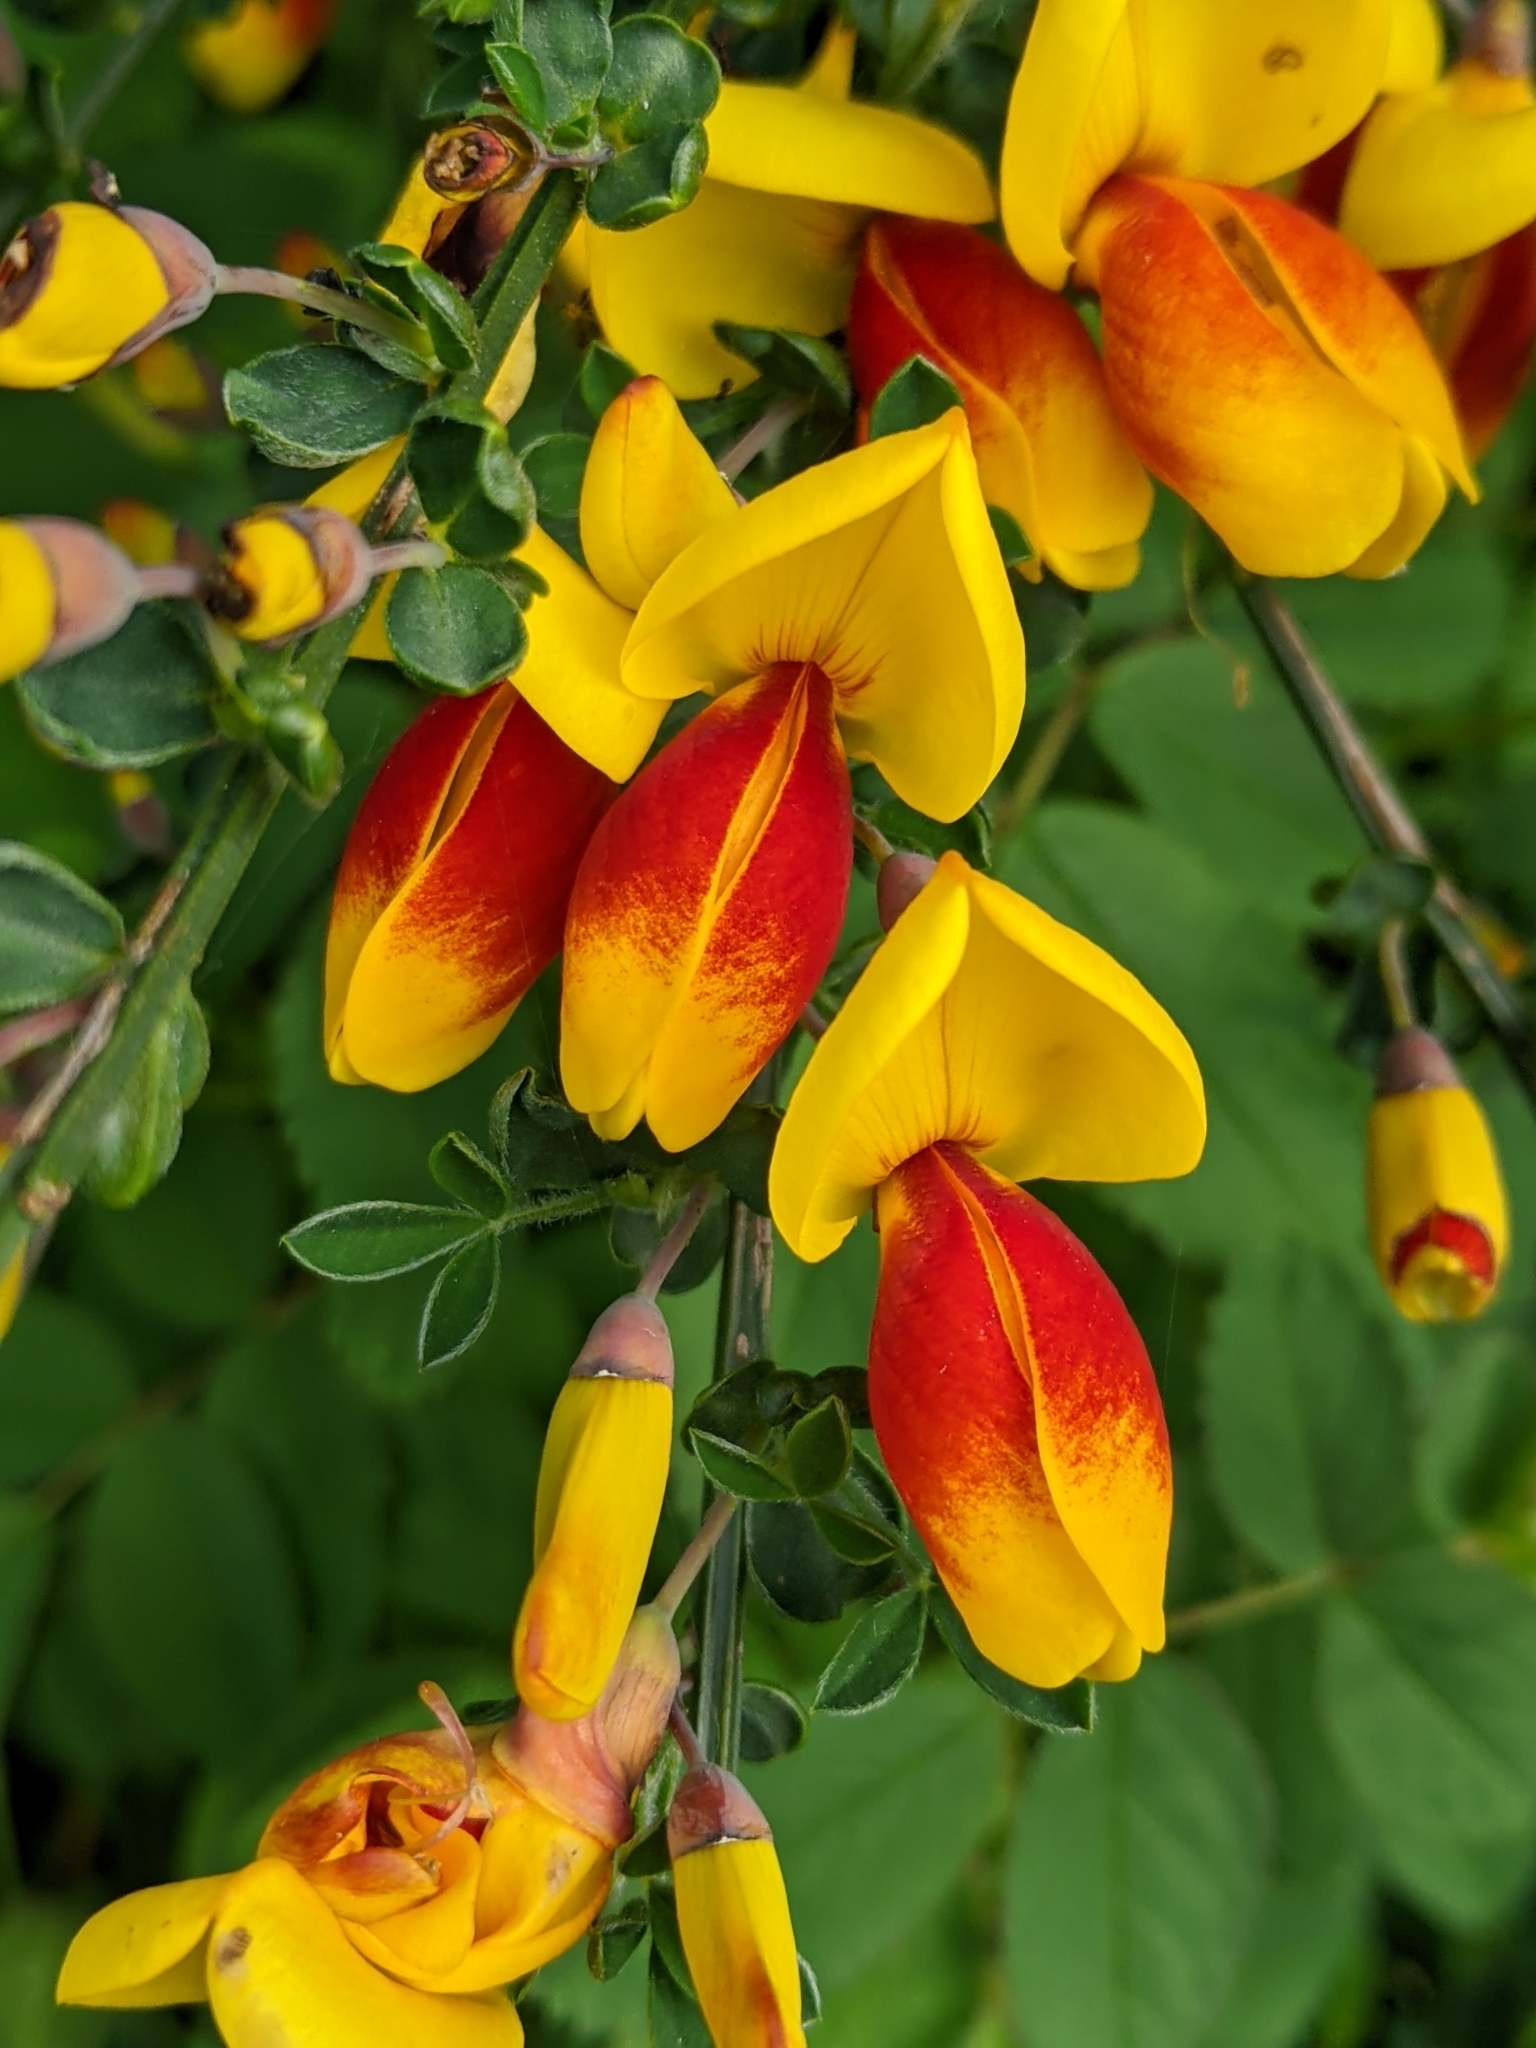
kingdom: Plantae
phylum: Tracheophyta
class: Magnoliopsida
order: Fabales
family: Fabaceae
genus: Cytisus
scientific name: Cytisus scoparius
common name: Scotch broom
